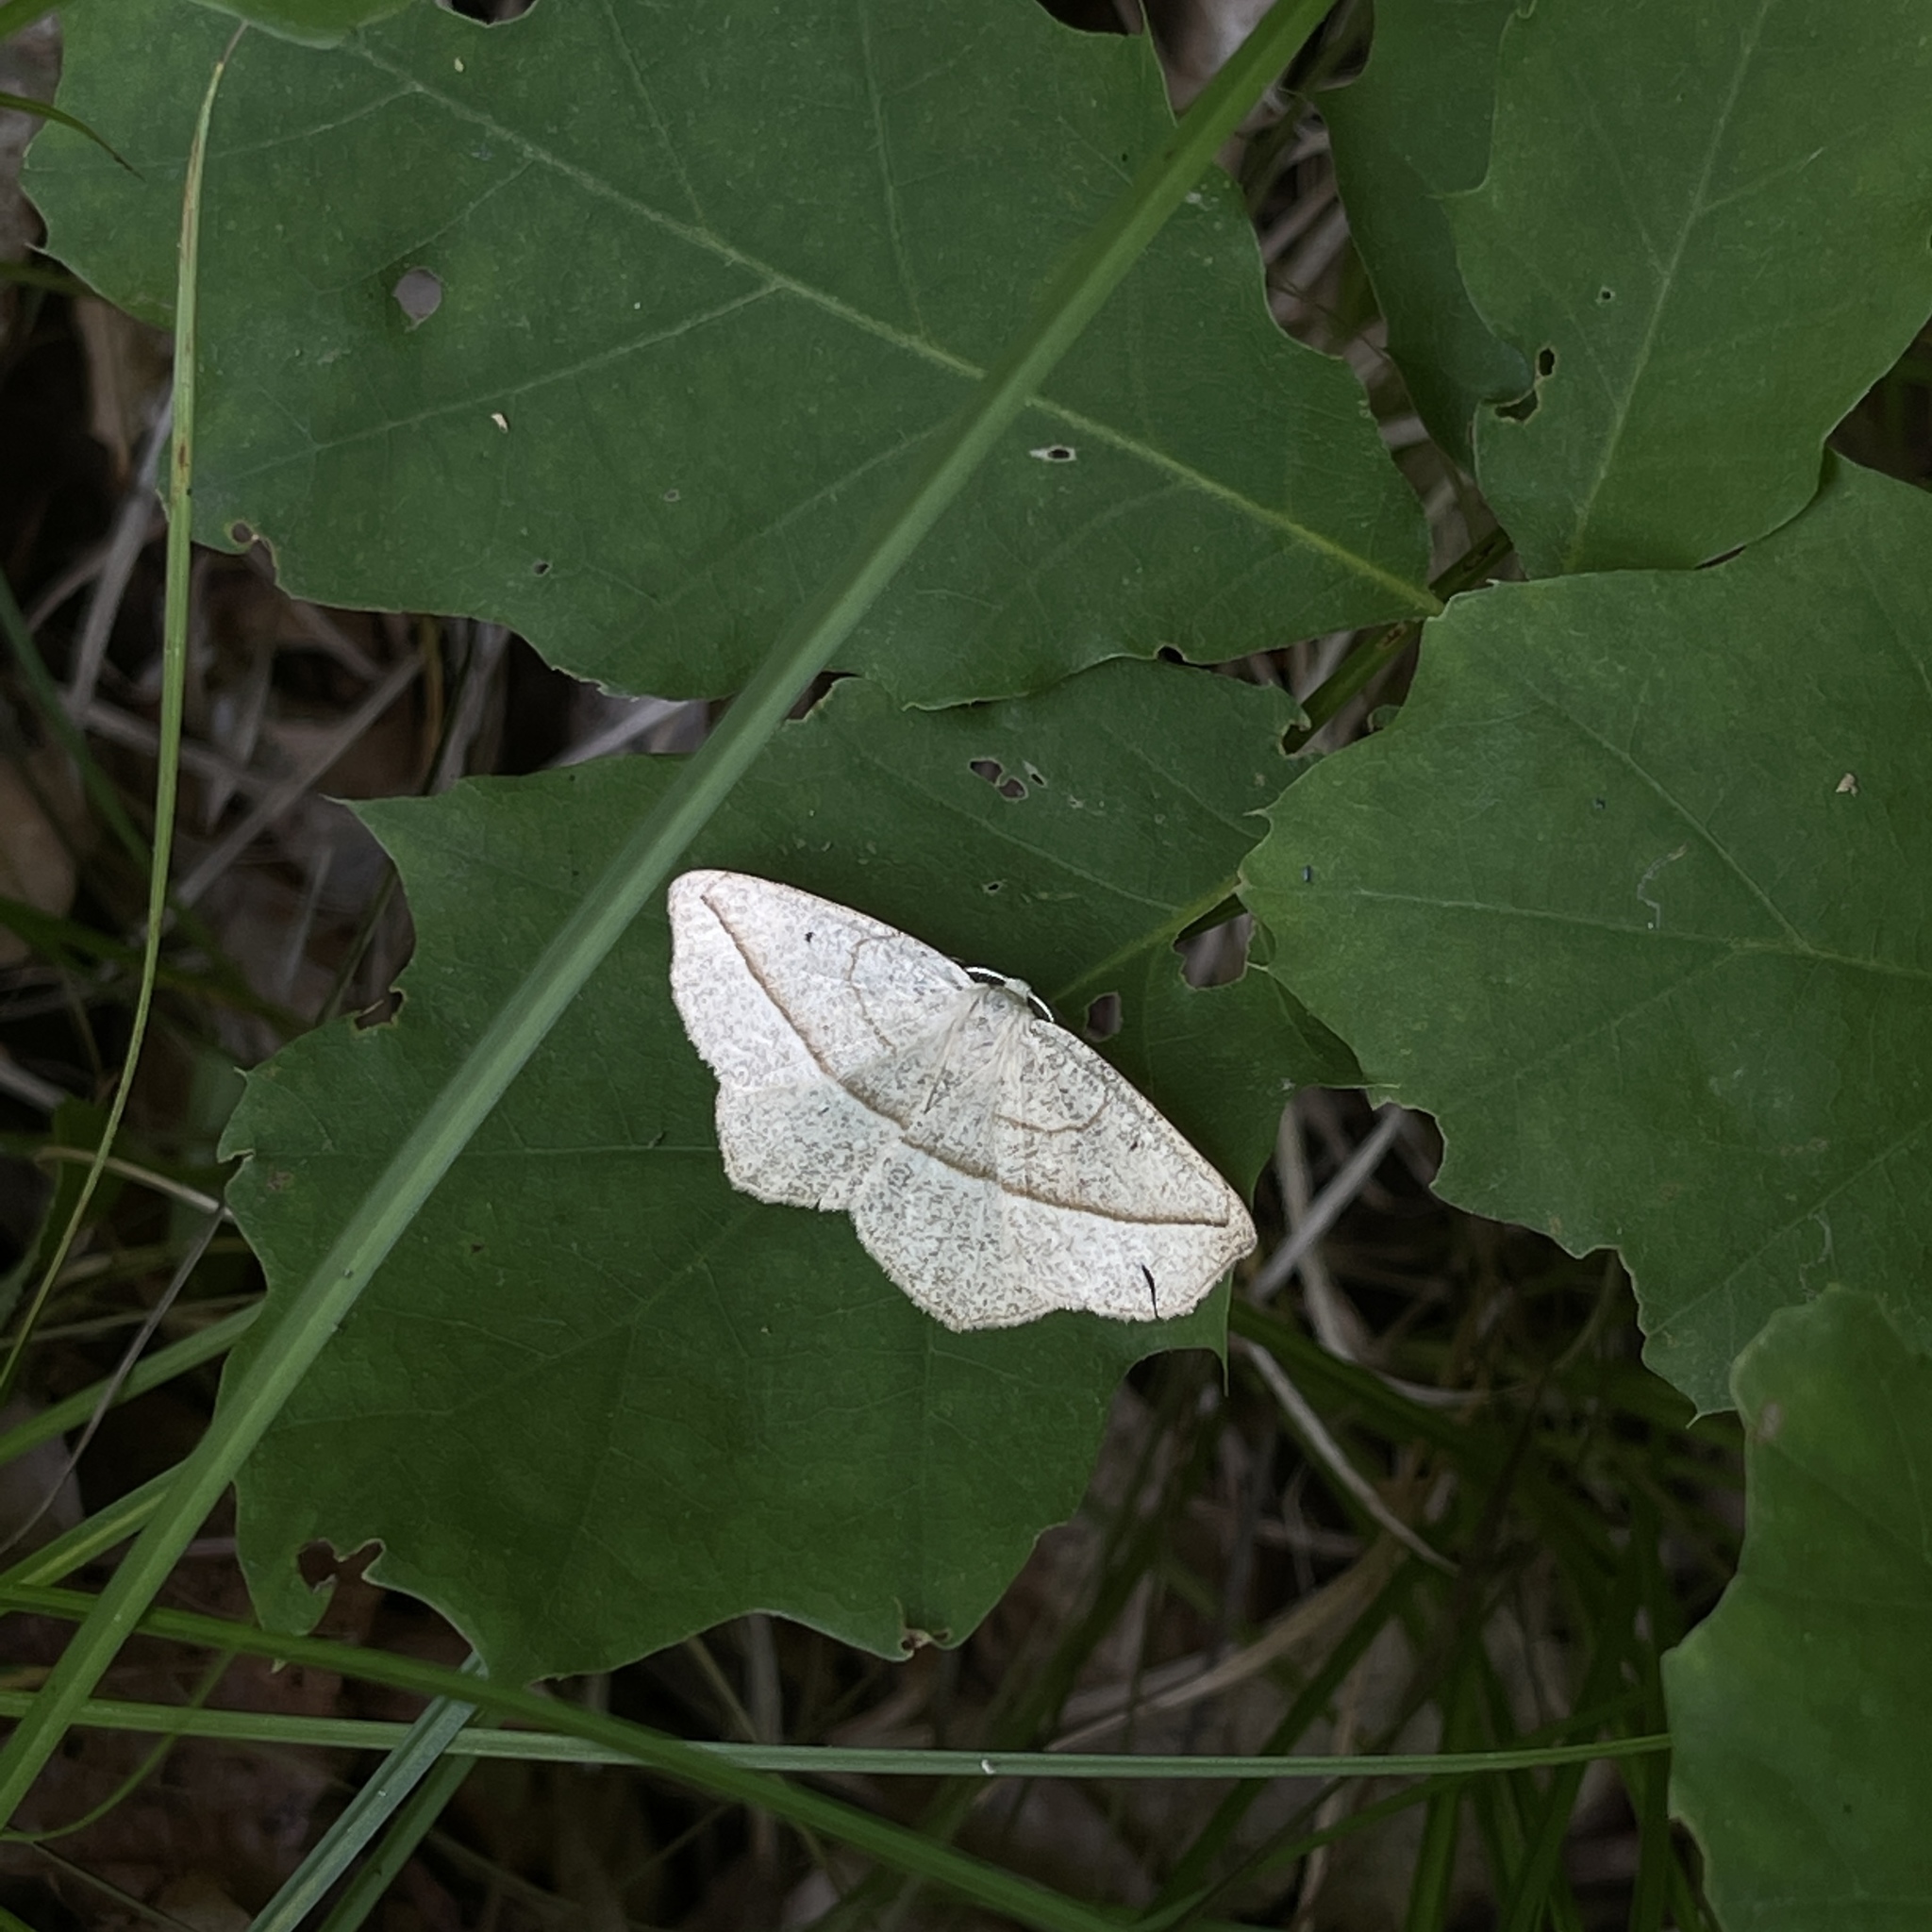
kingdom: Animalia
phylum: Arthropoda
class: Insecta
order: Lepidoptera
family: Geometridae
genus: Eusarca
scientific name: Eusarca confusaria
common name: Confused eusarca
